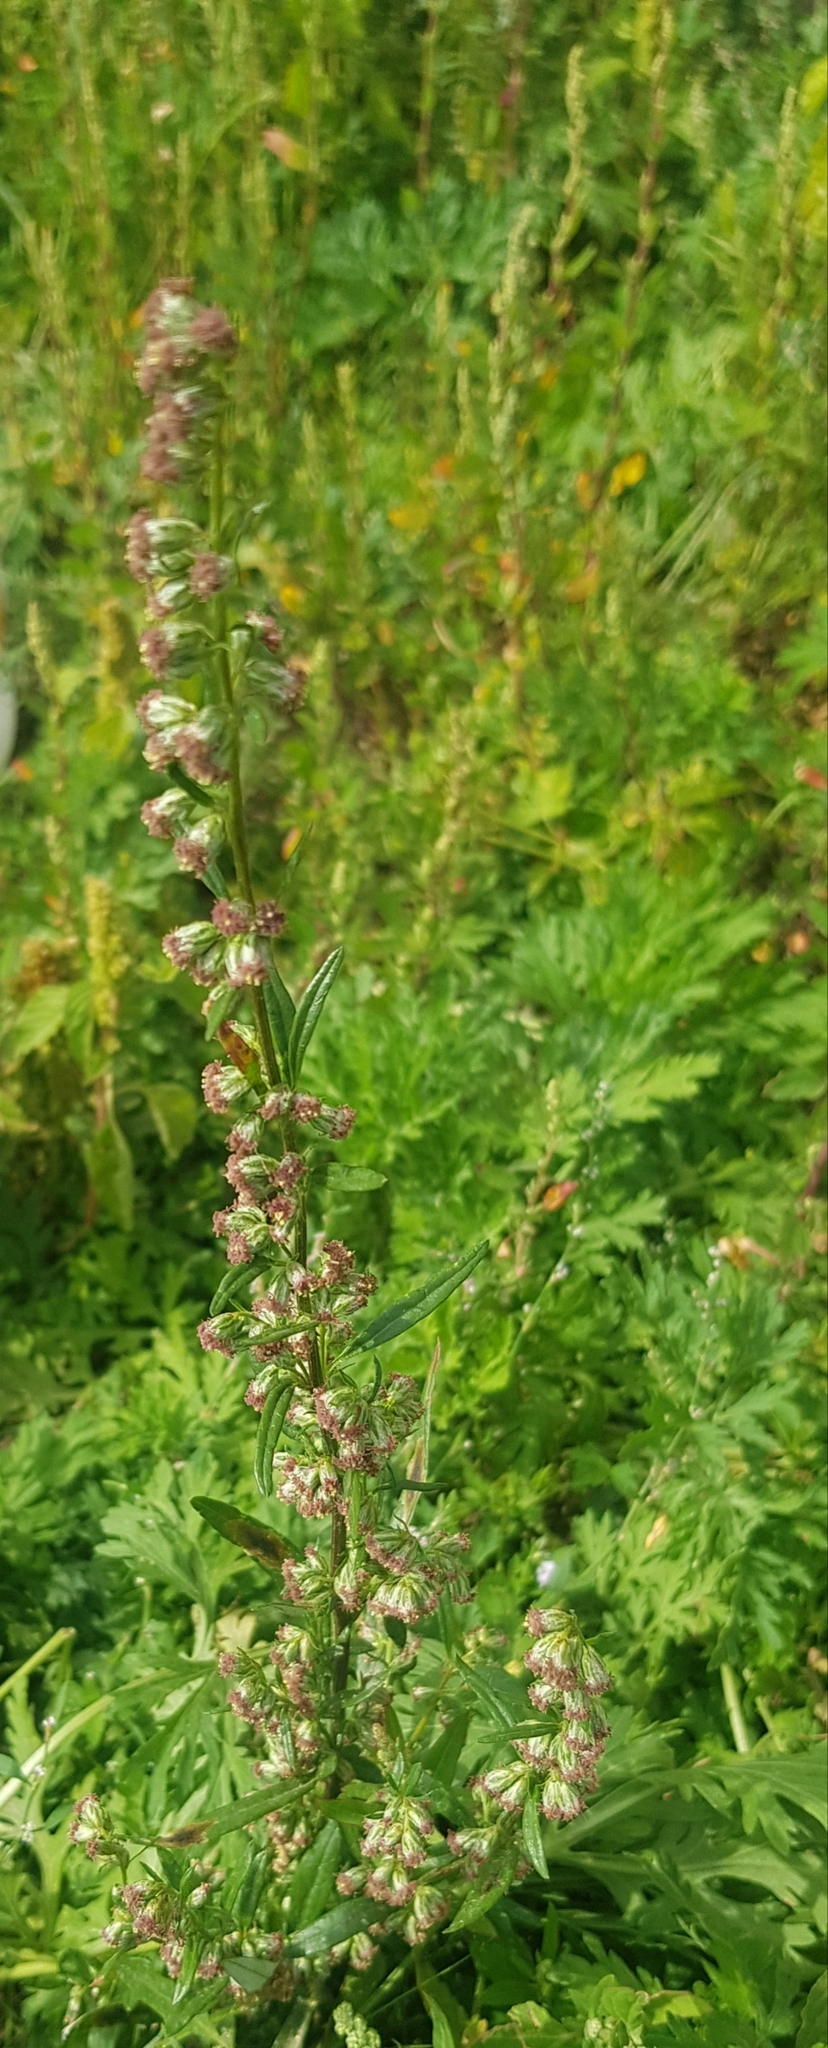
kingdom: Plantae
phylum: Tracheophyta
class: Magnoliopsida
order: Asterales
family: Asteraceae
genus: Artemisia
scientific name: Artemisia integrifolia
